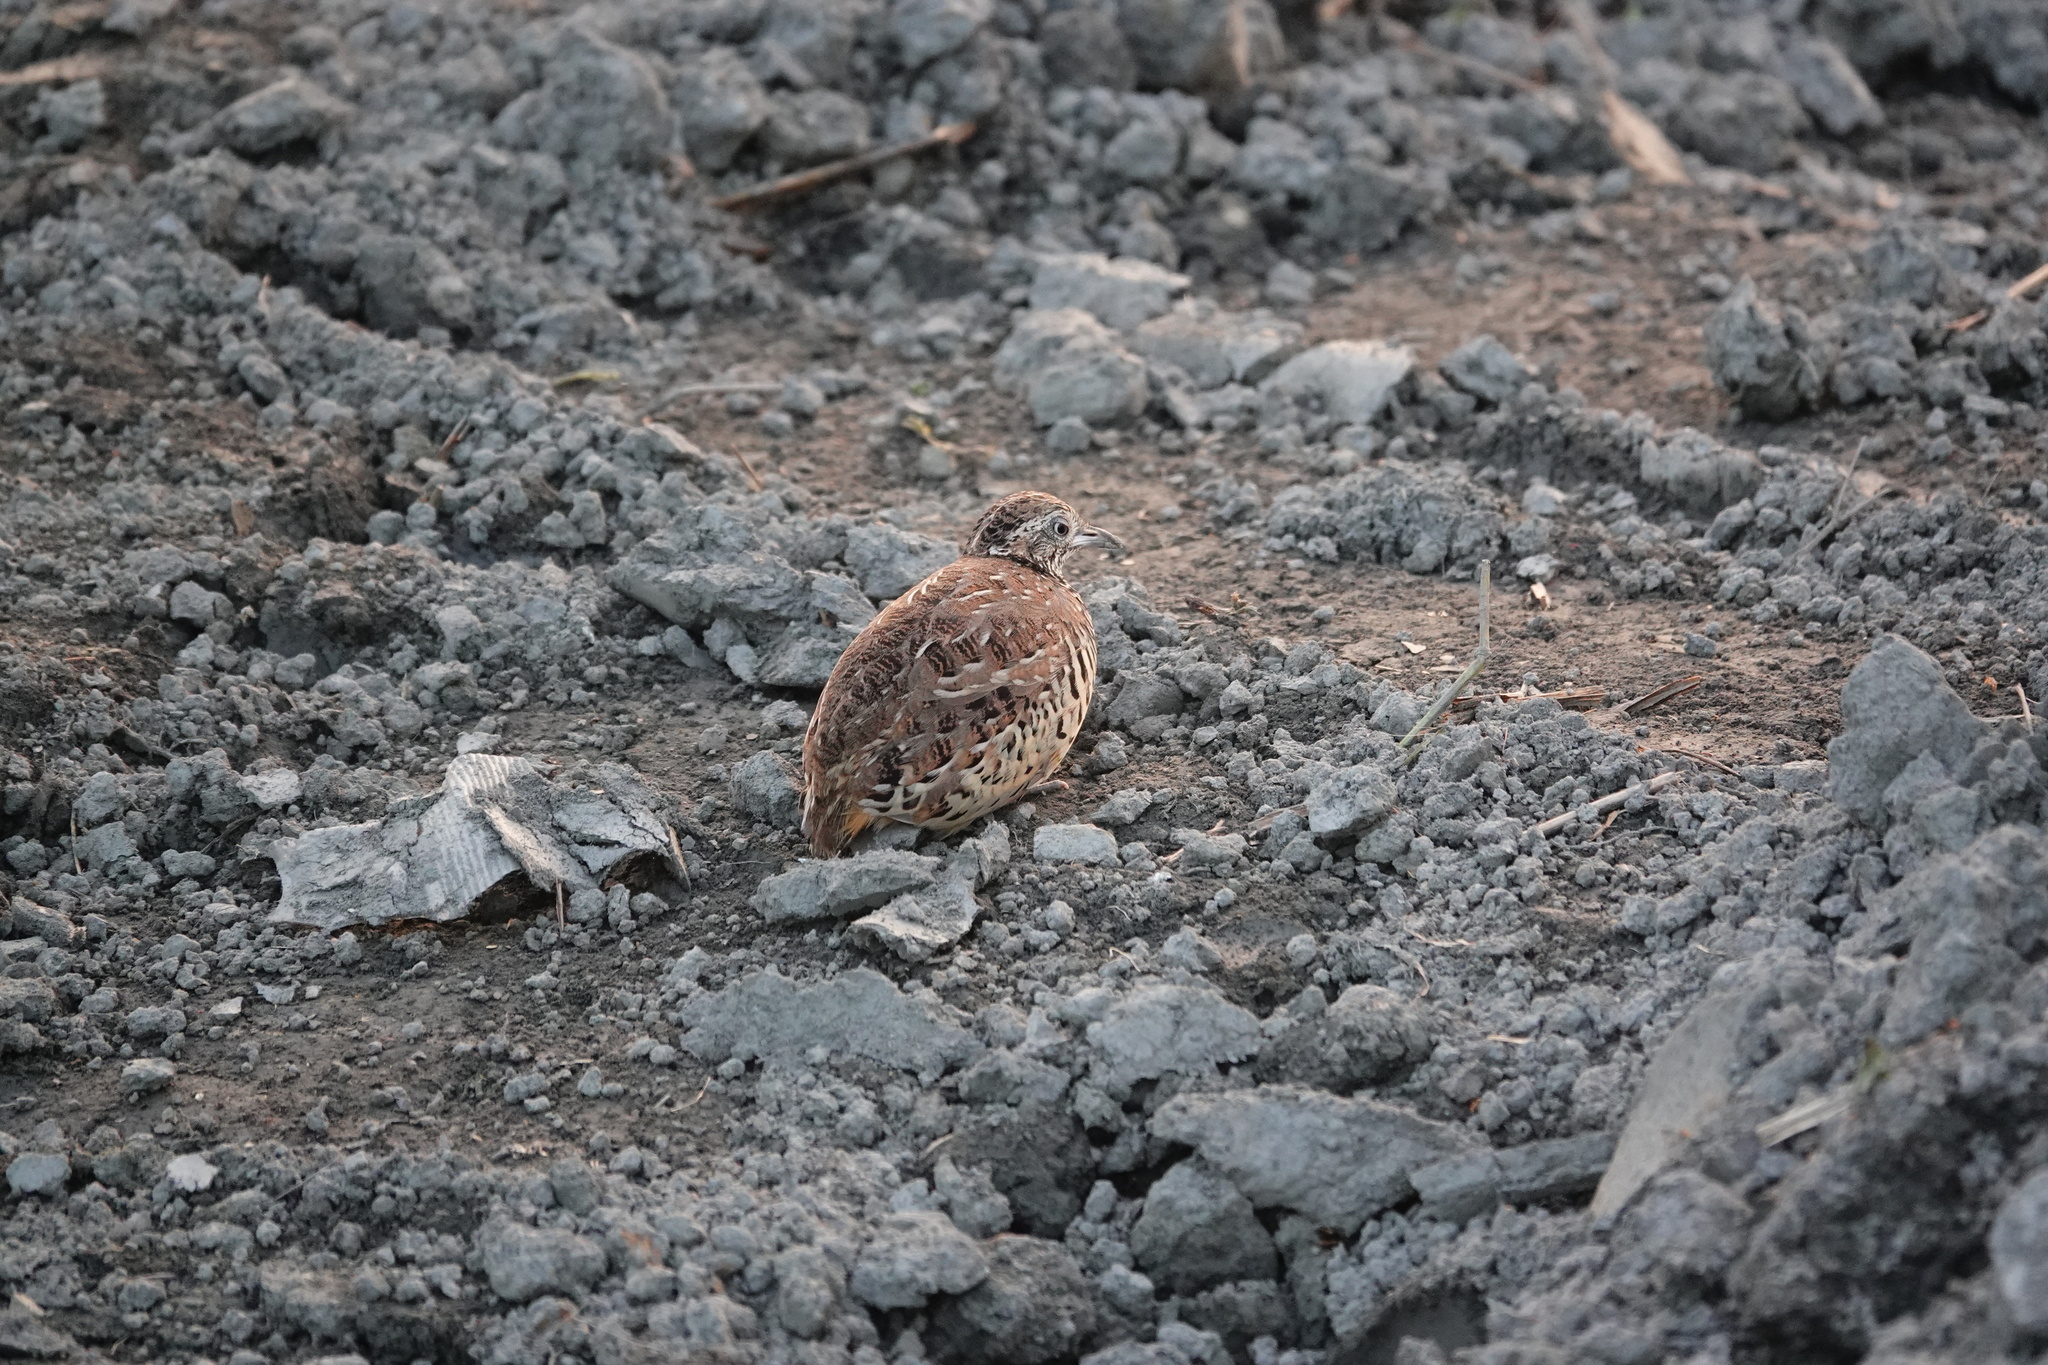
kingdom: Animalia
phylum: Chordata
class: Aves
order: Charadriiformes
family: Turnicidae
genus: Turnix
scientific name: Turnix suscitator
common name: Barred buttonquail
